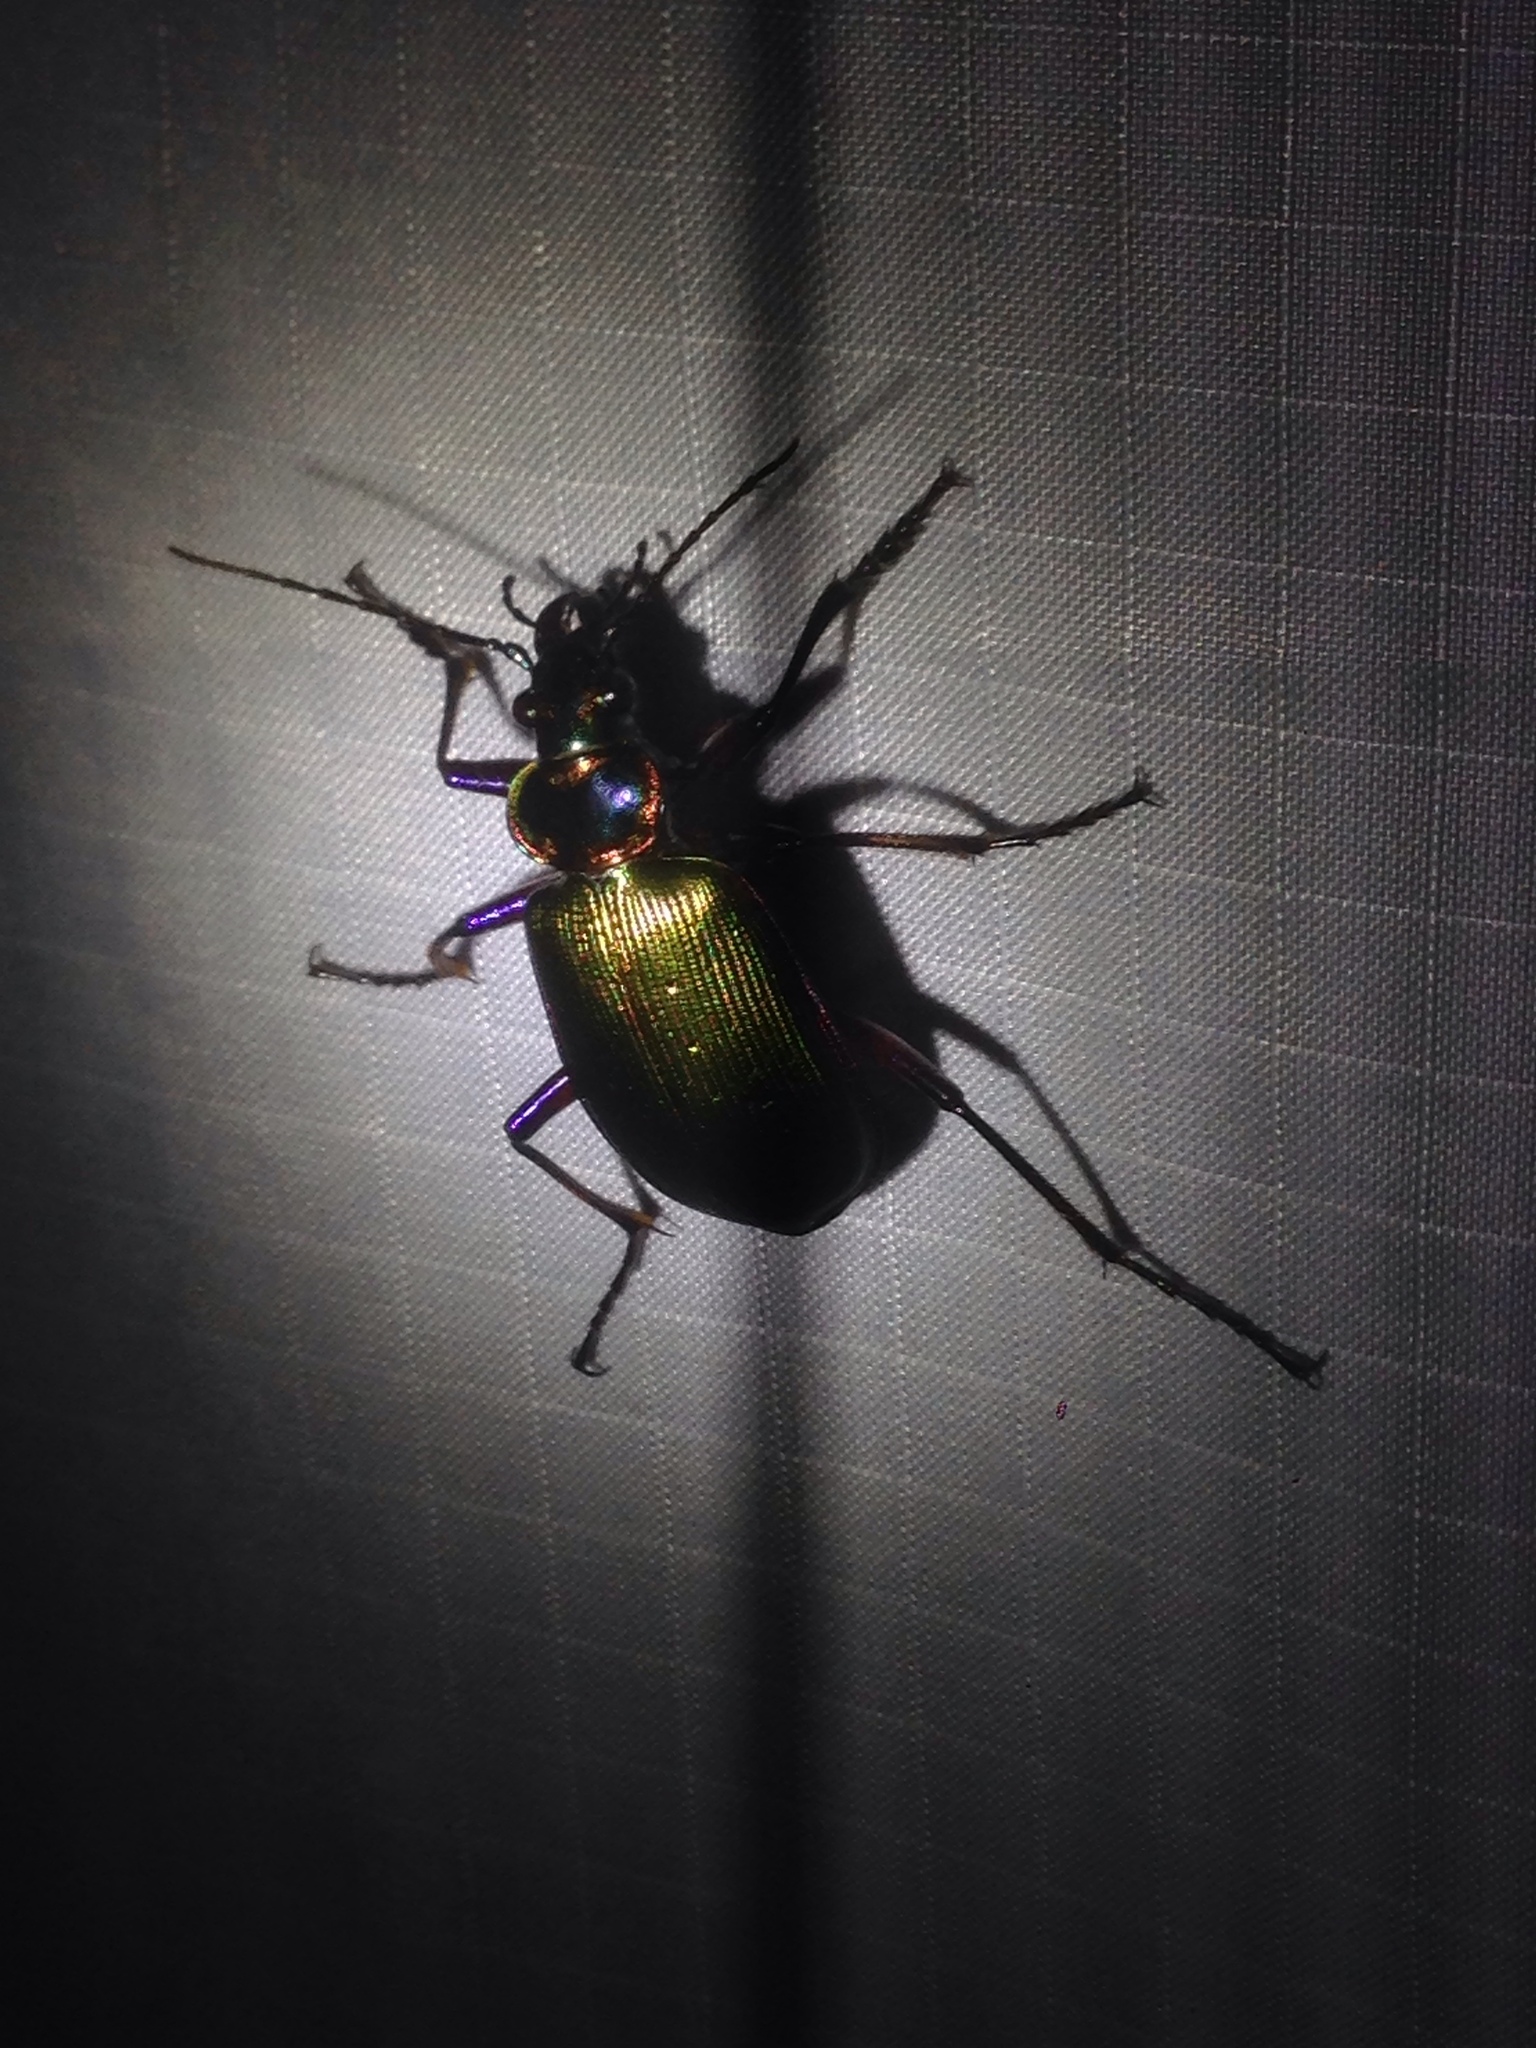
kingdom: Animalia
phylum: Arthropoda
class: Insecta
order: Coleoptera
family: Carabidae
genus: Calosoma
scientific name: Calosoma scrutator
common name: Fiery searcher beetle
